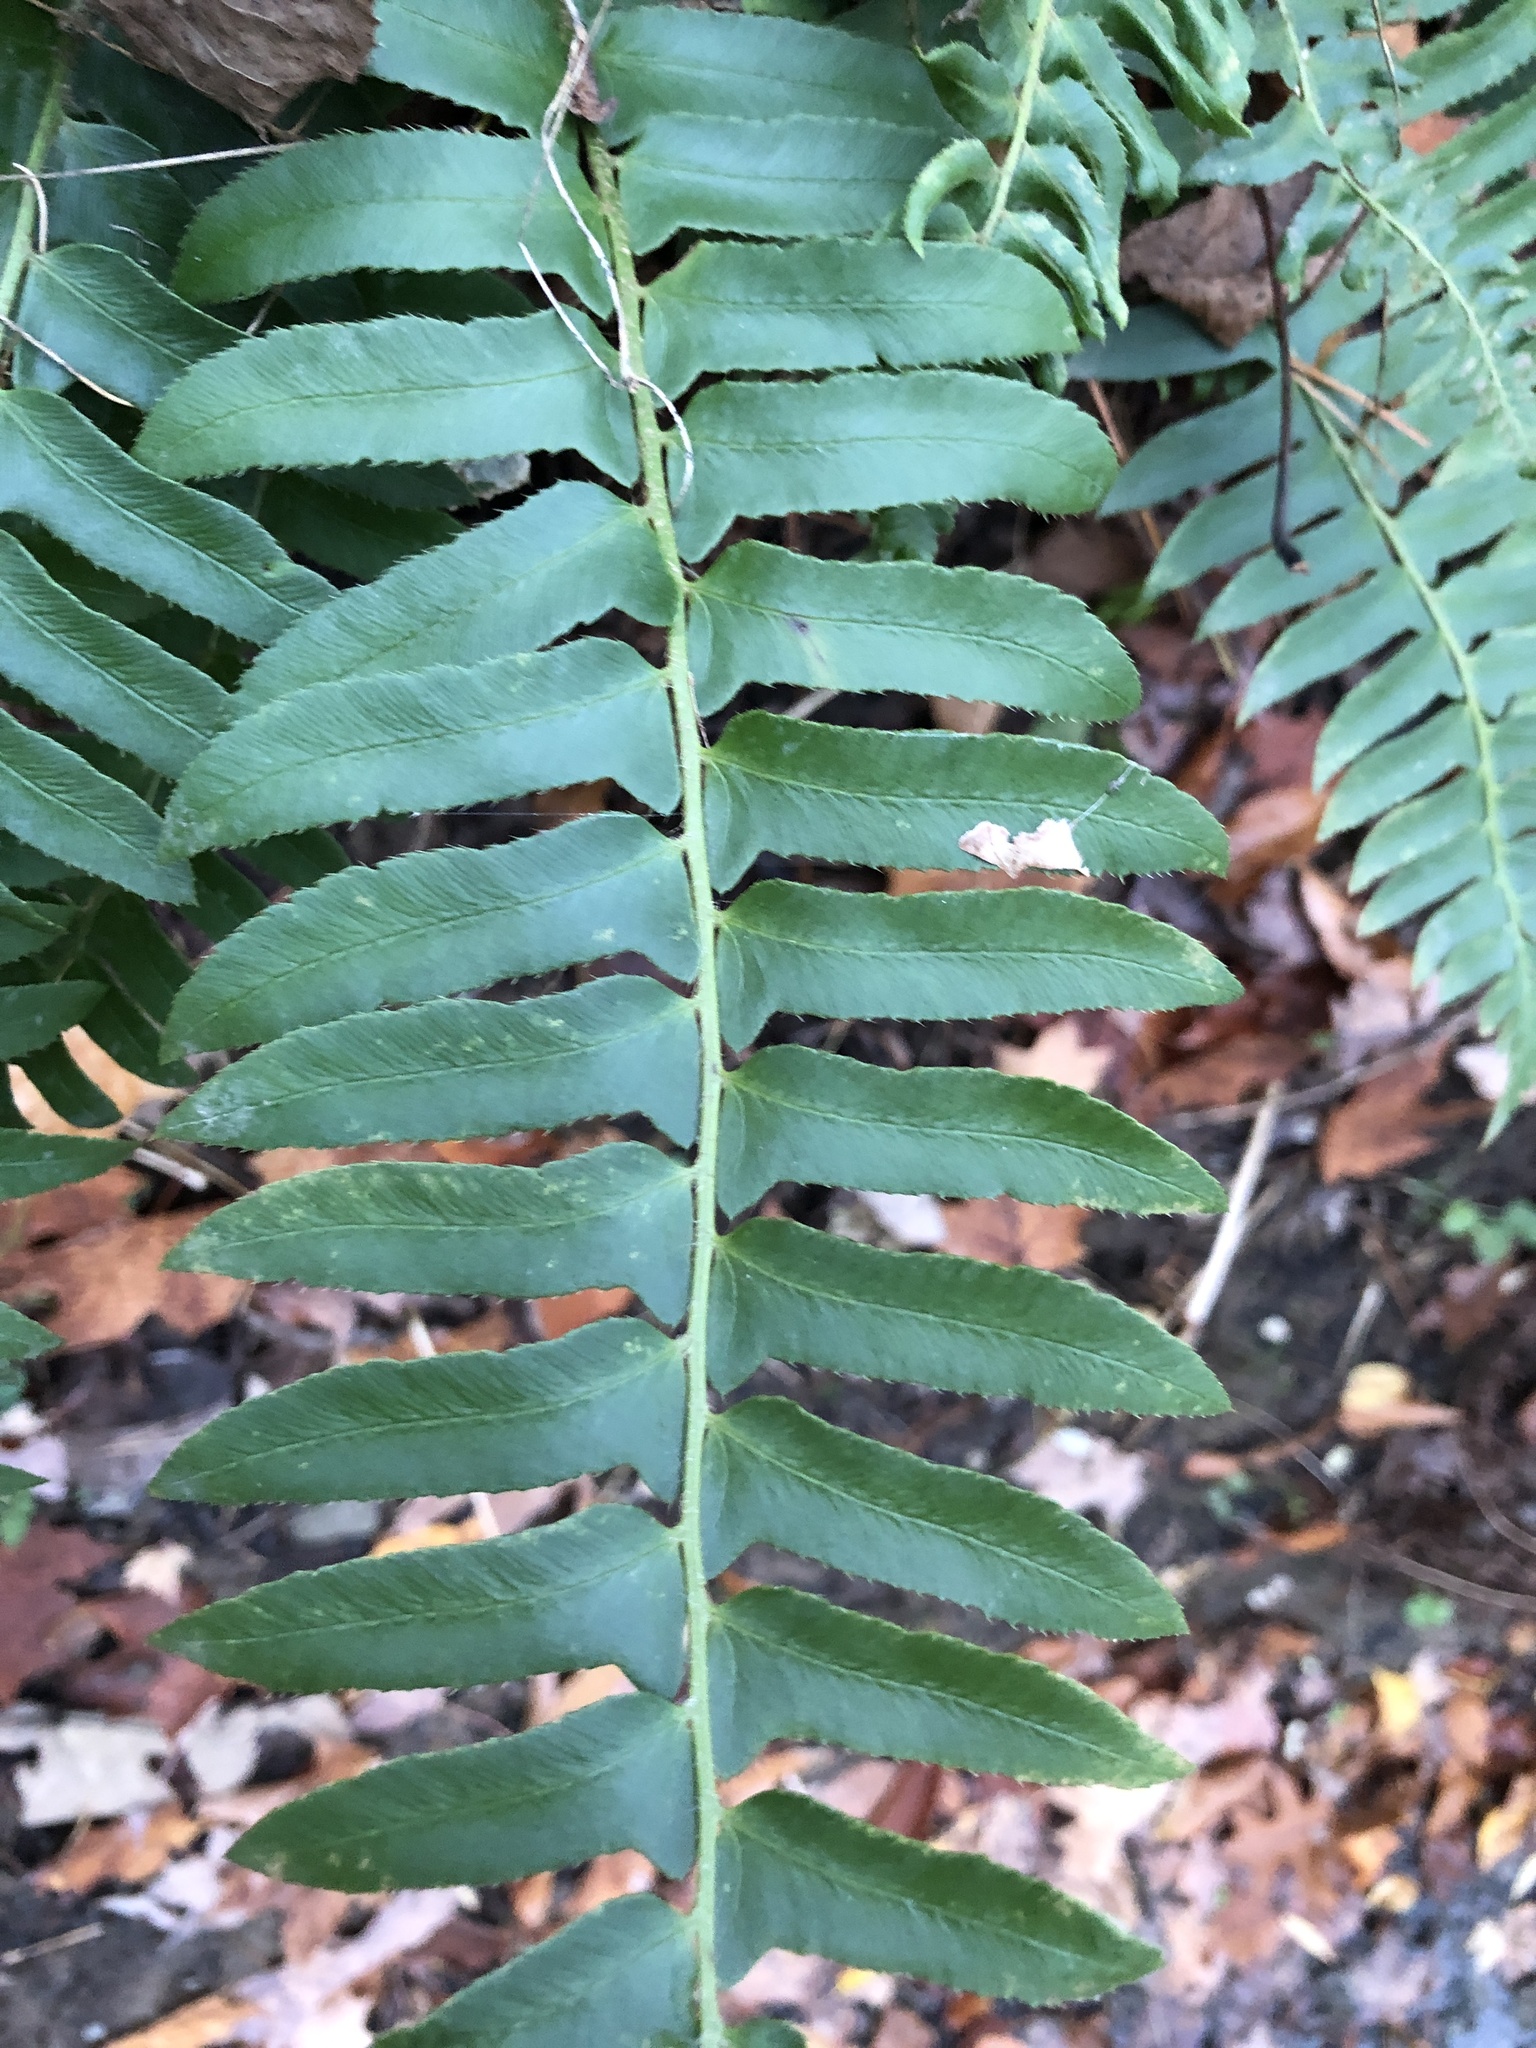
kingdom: Plantae
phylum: Tracheophyta
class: Polypodiopsida
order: Polypodiales
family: Dryopteridaceae
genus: Polystichum
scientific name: Polystichum acrostichoides
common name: Christmas fern
